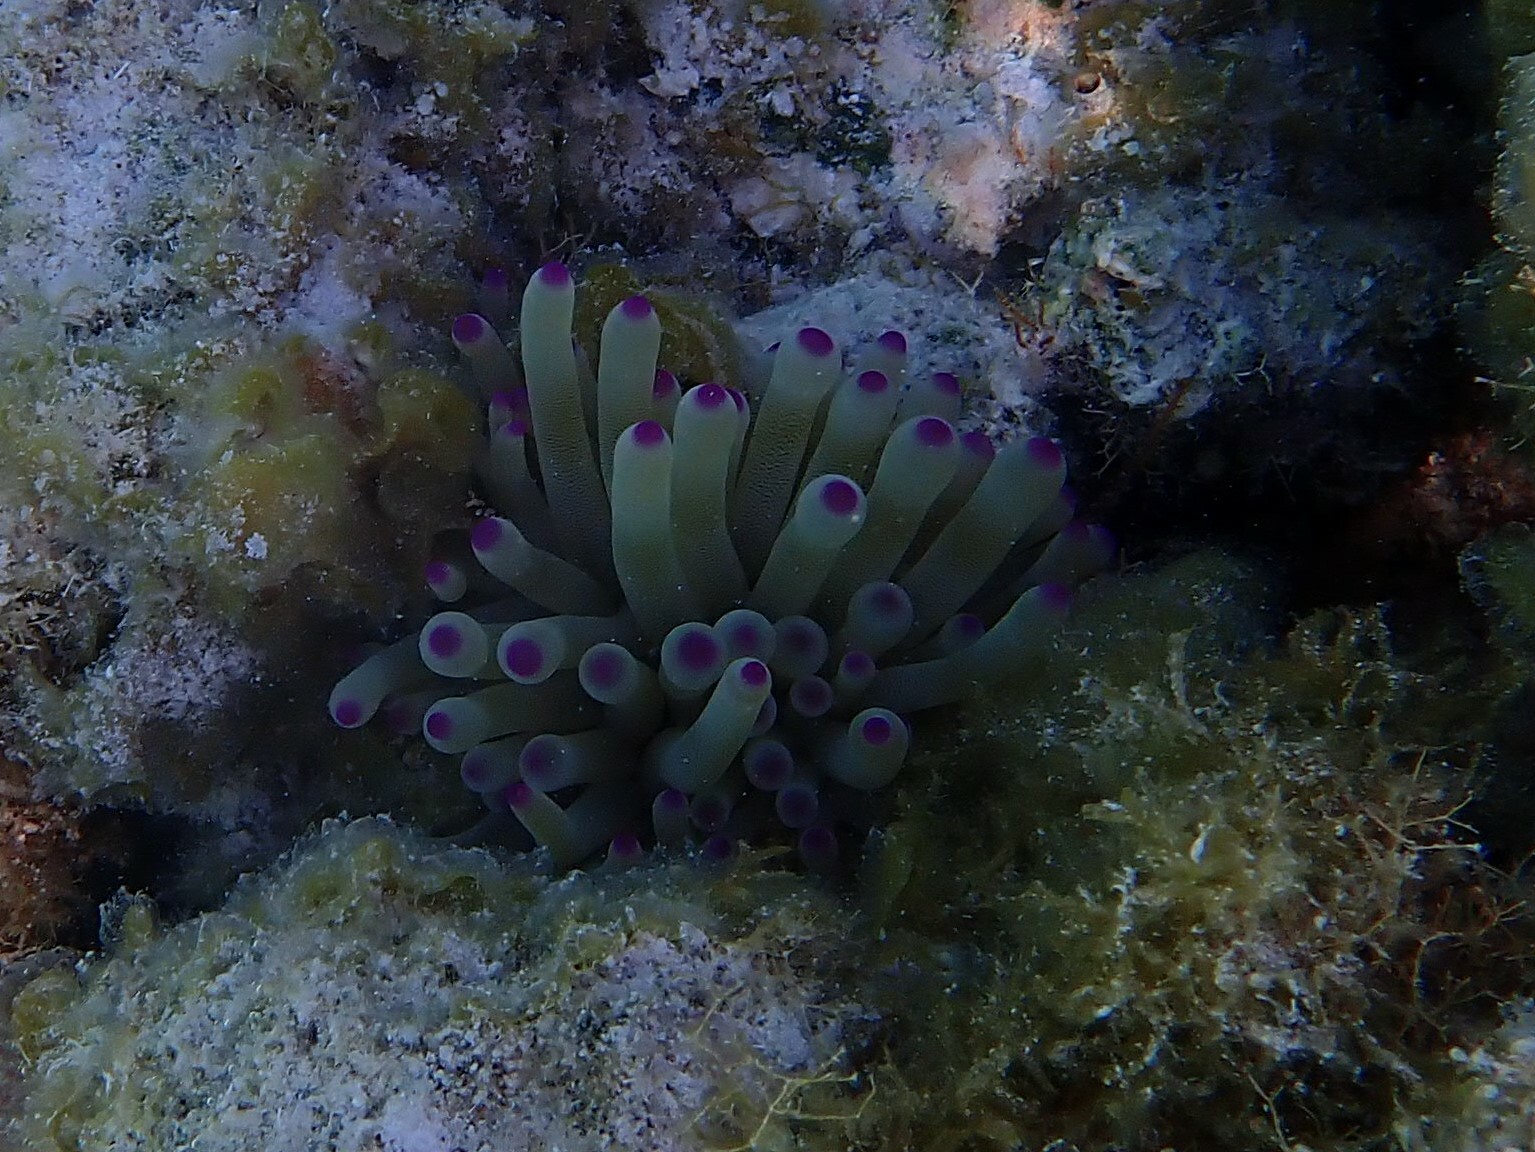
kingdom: Animalia
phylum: Cnidaria
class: Anthozoa
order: Actiniaria
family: Actiniidae
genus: Condylactis
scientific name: Condylactis gigantea
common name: Giant caribbean anemone
